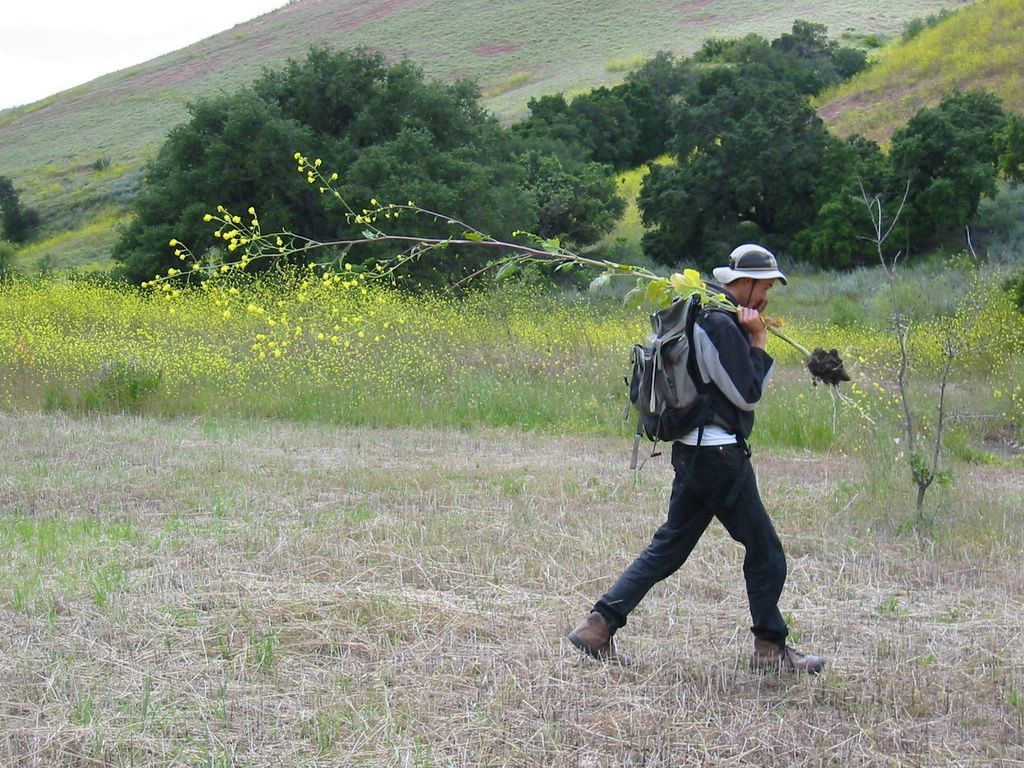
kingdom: Plantae
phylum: Tracheophyta
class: Magnoliopsida
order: Brassicales
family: Brassicaceae
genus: Brassica
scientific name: Brassica nigra
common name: Black mustard
